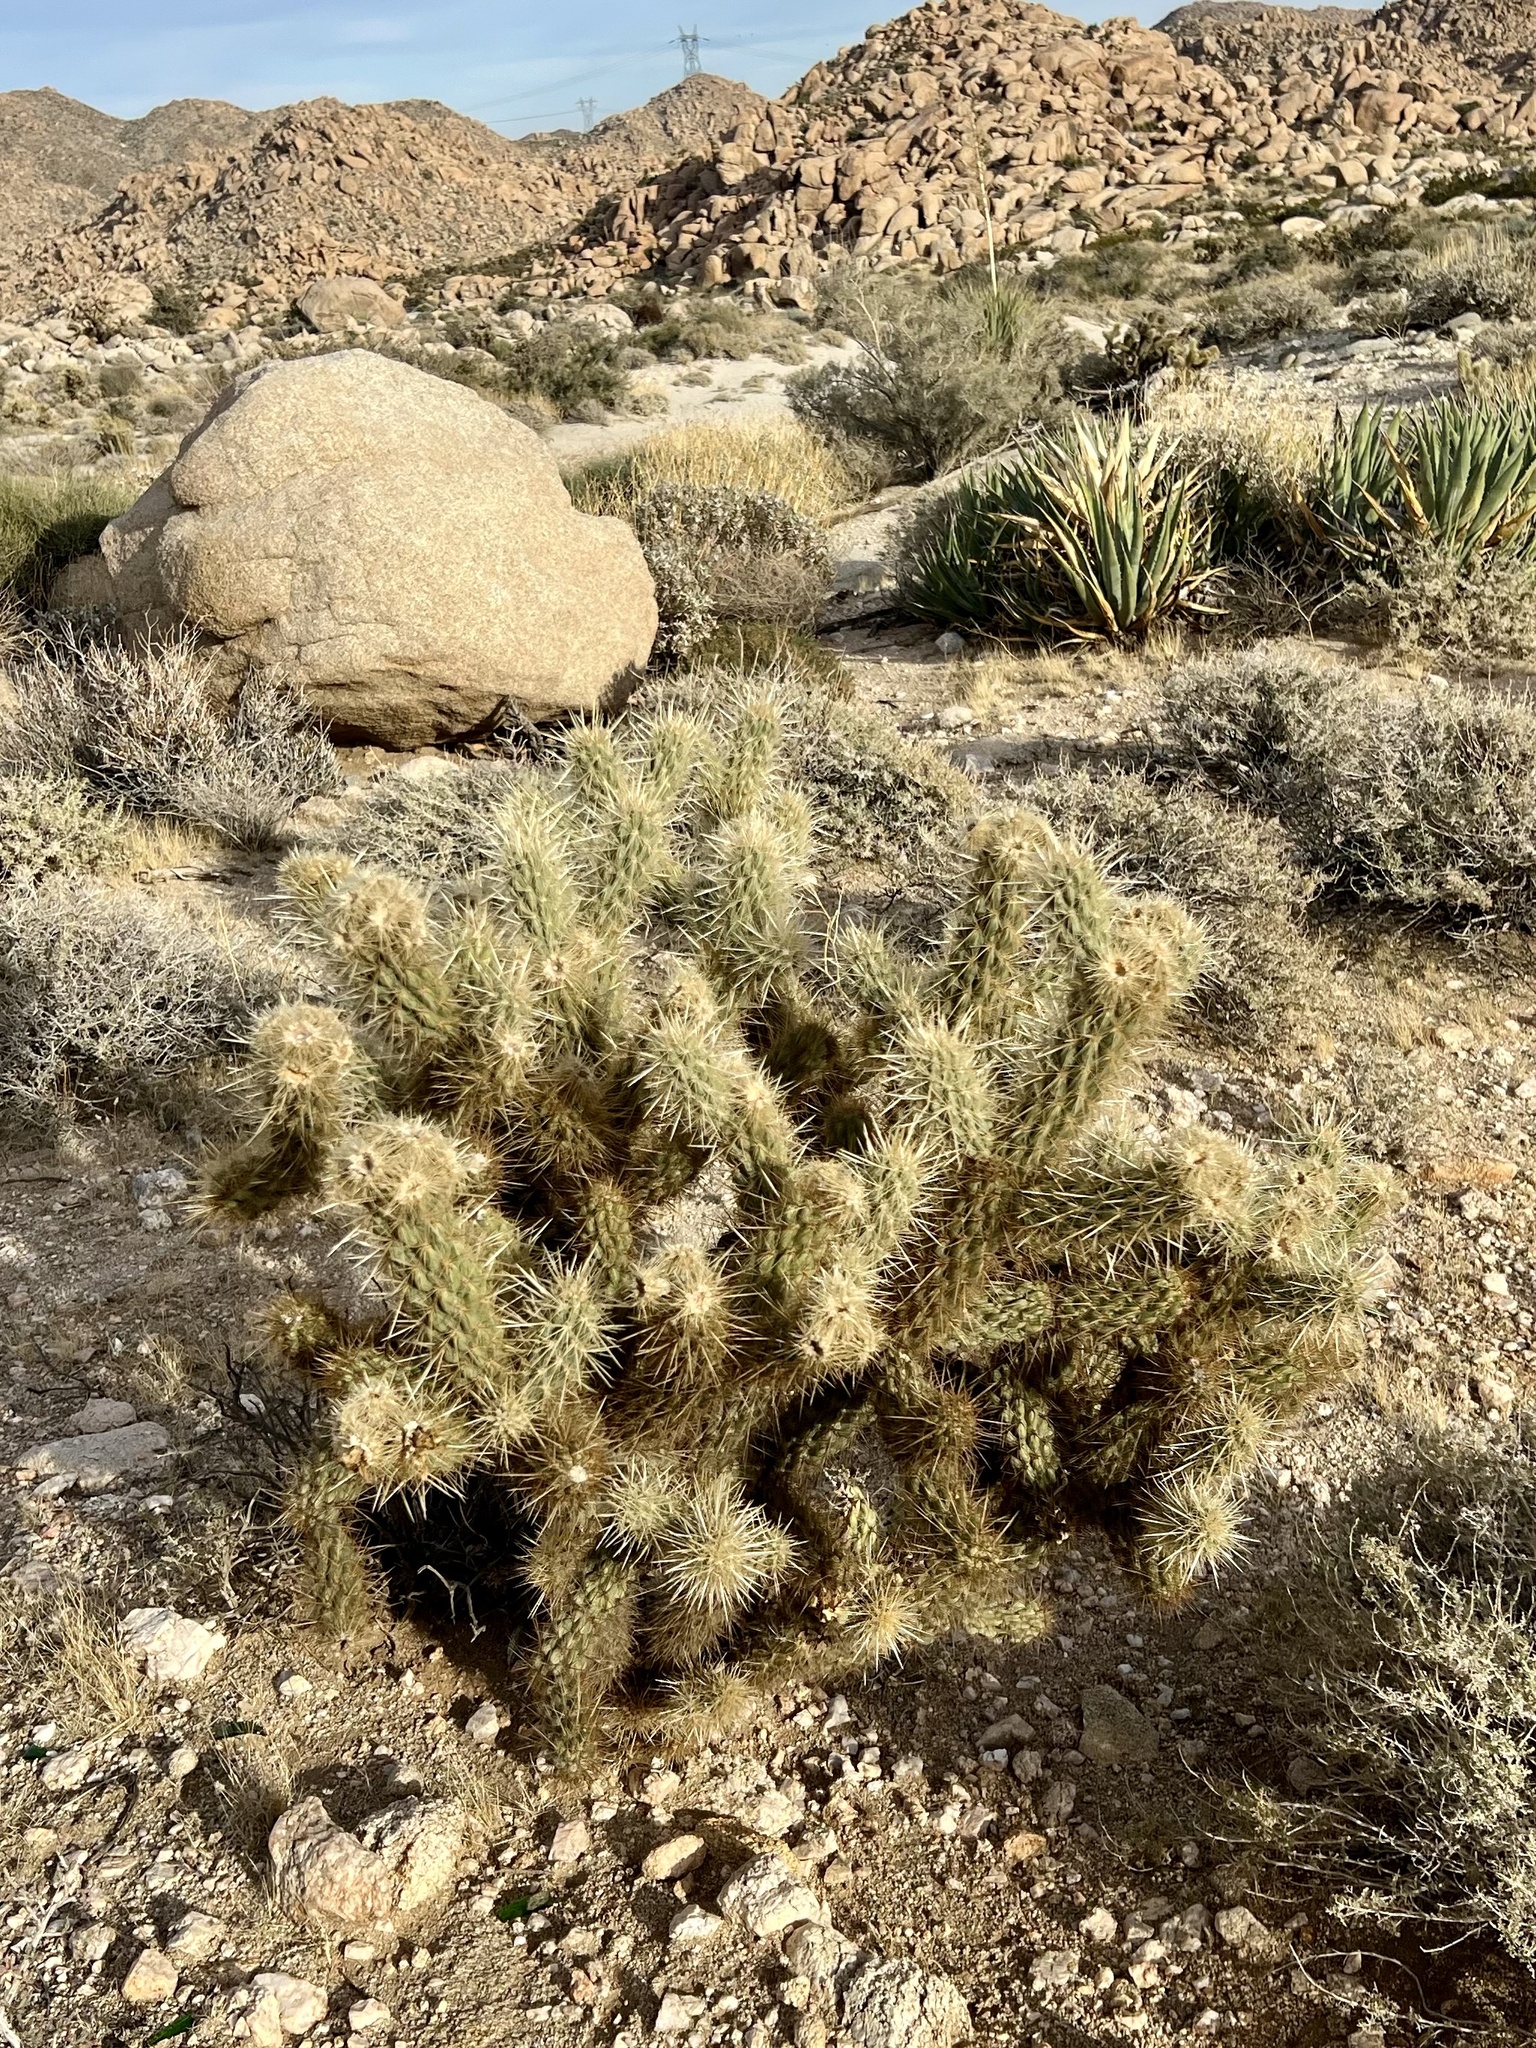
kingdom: Plantae
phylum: Tracheophyta
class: Magnoliopsida
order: Caryophyllales
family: Cactaceae
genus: Cylindropuntia
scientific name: Cylindropuntia ganderi
